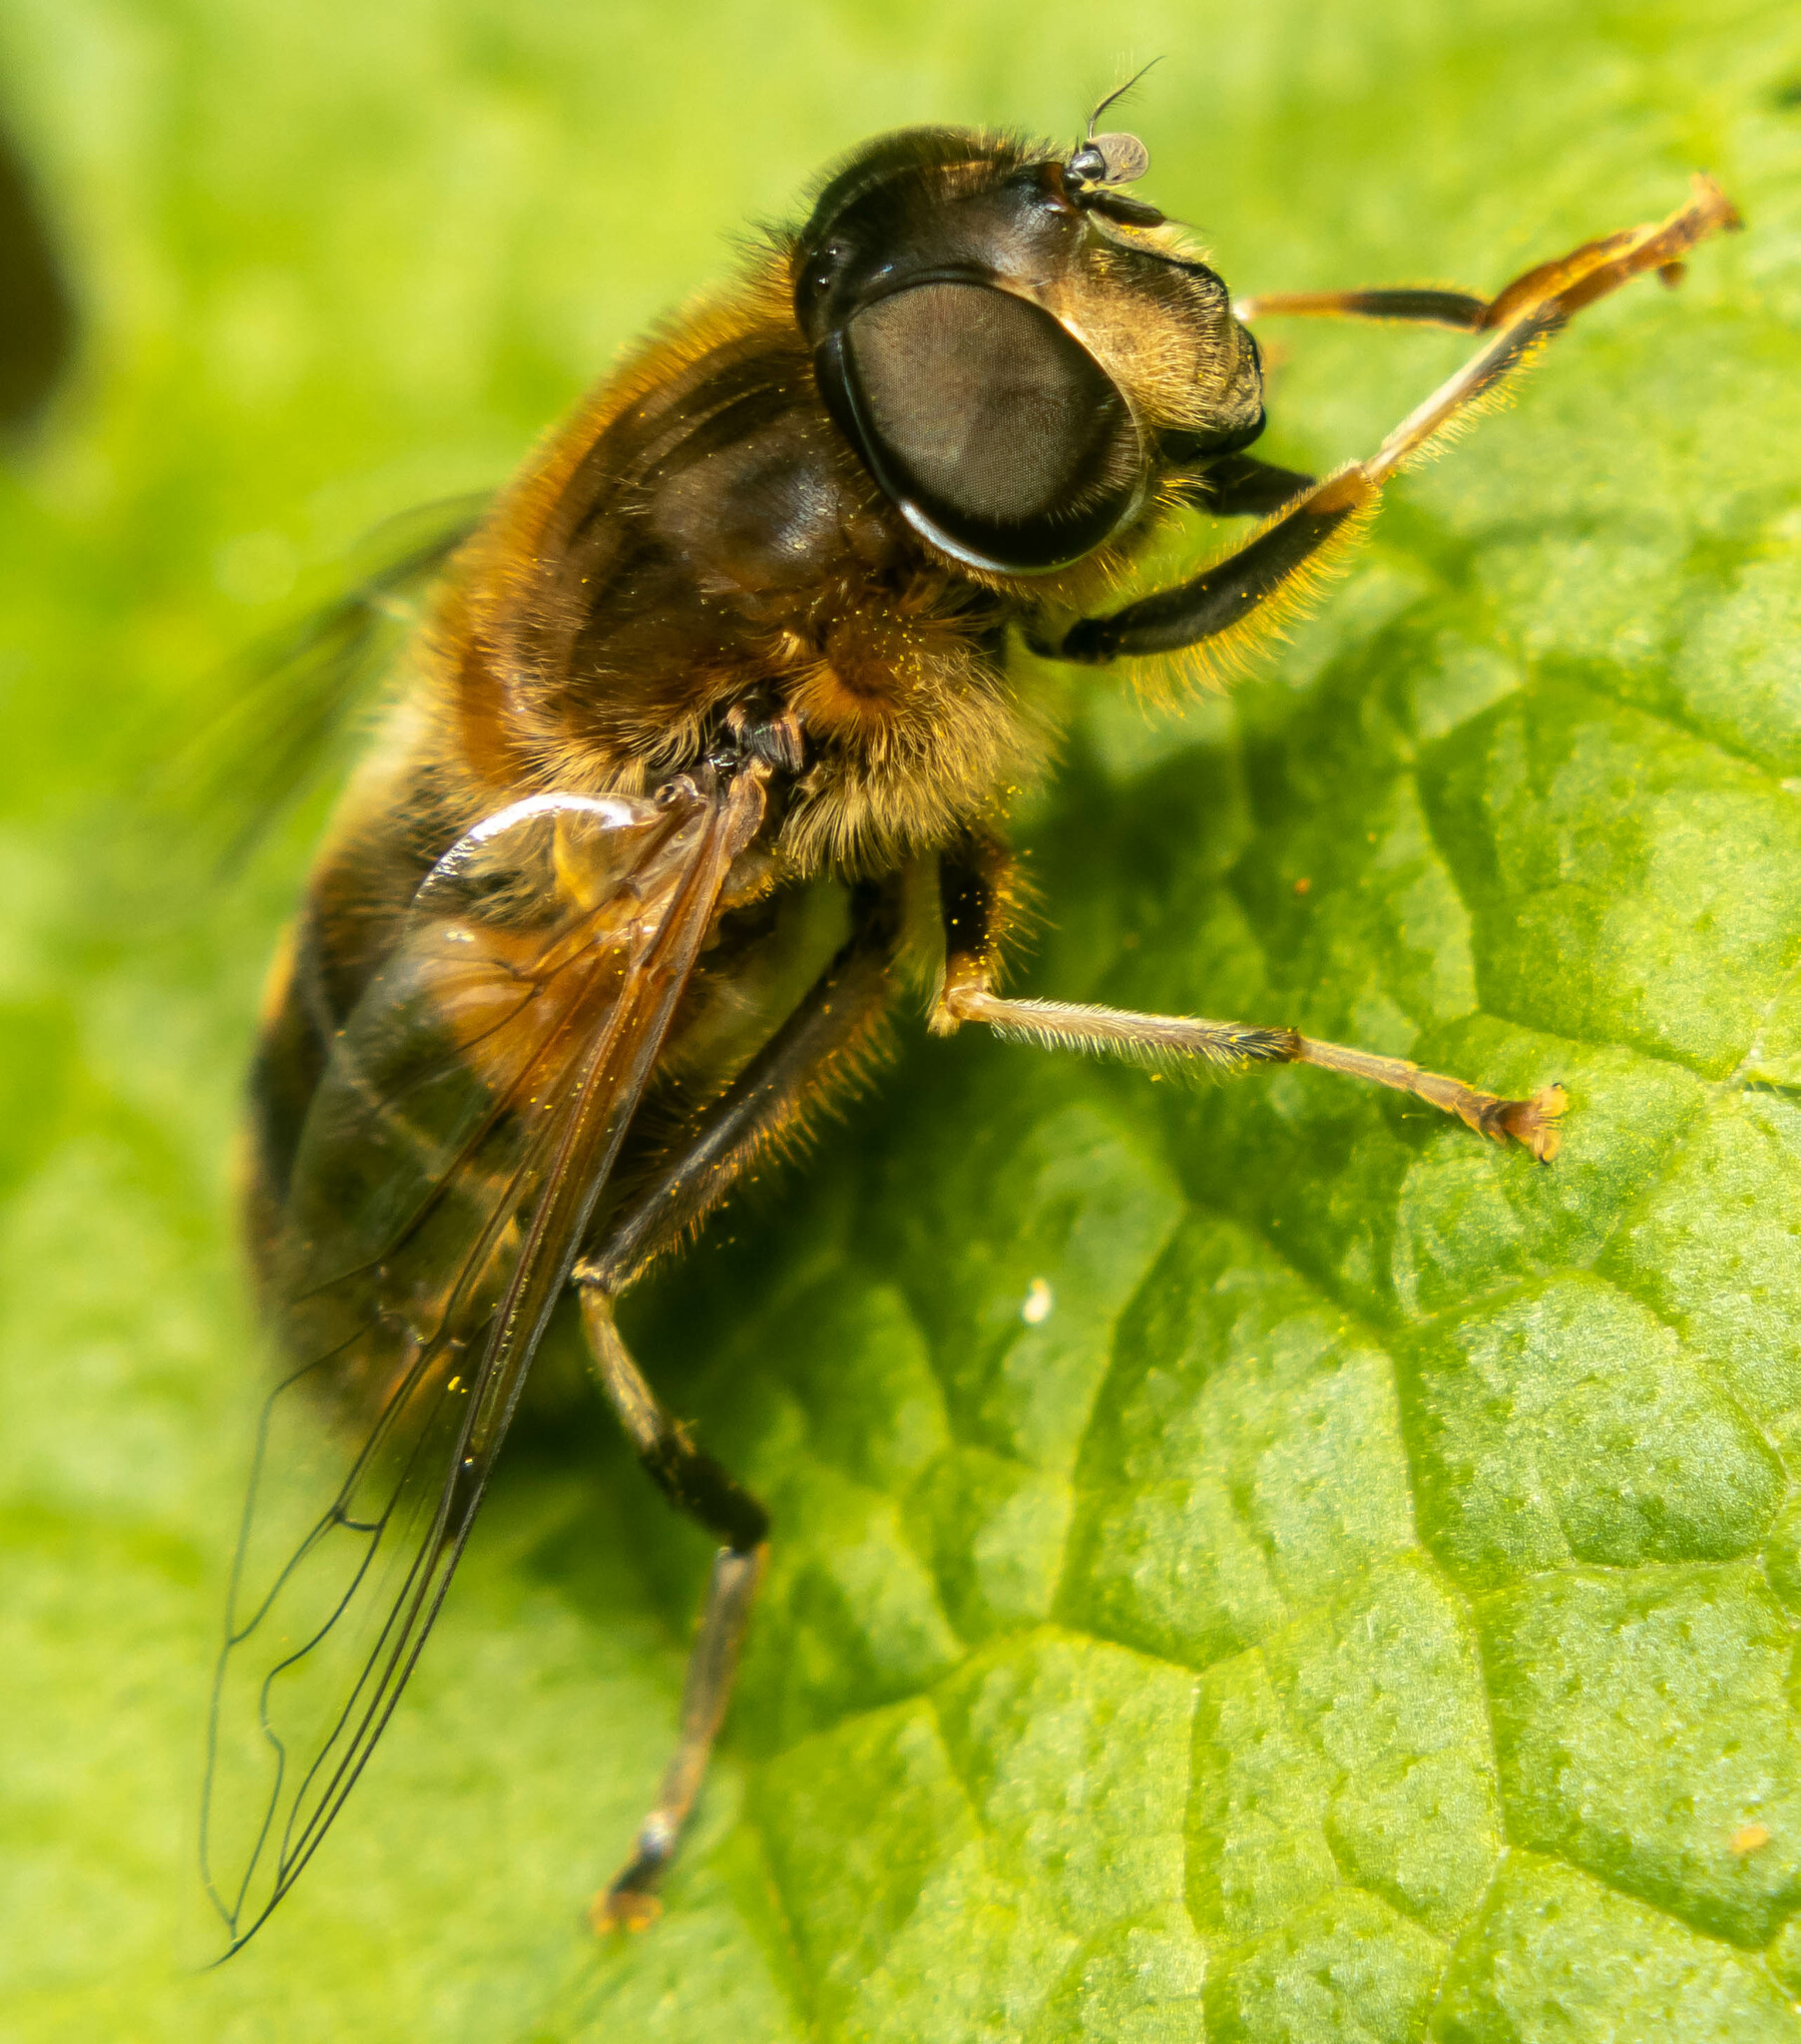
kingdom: Animalia
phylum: Arthropoda
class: Insecta
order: Diptera
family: Syrphidae
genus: Eristalis
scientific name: Eristalis pertinax
